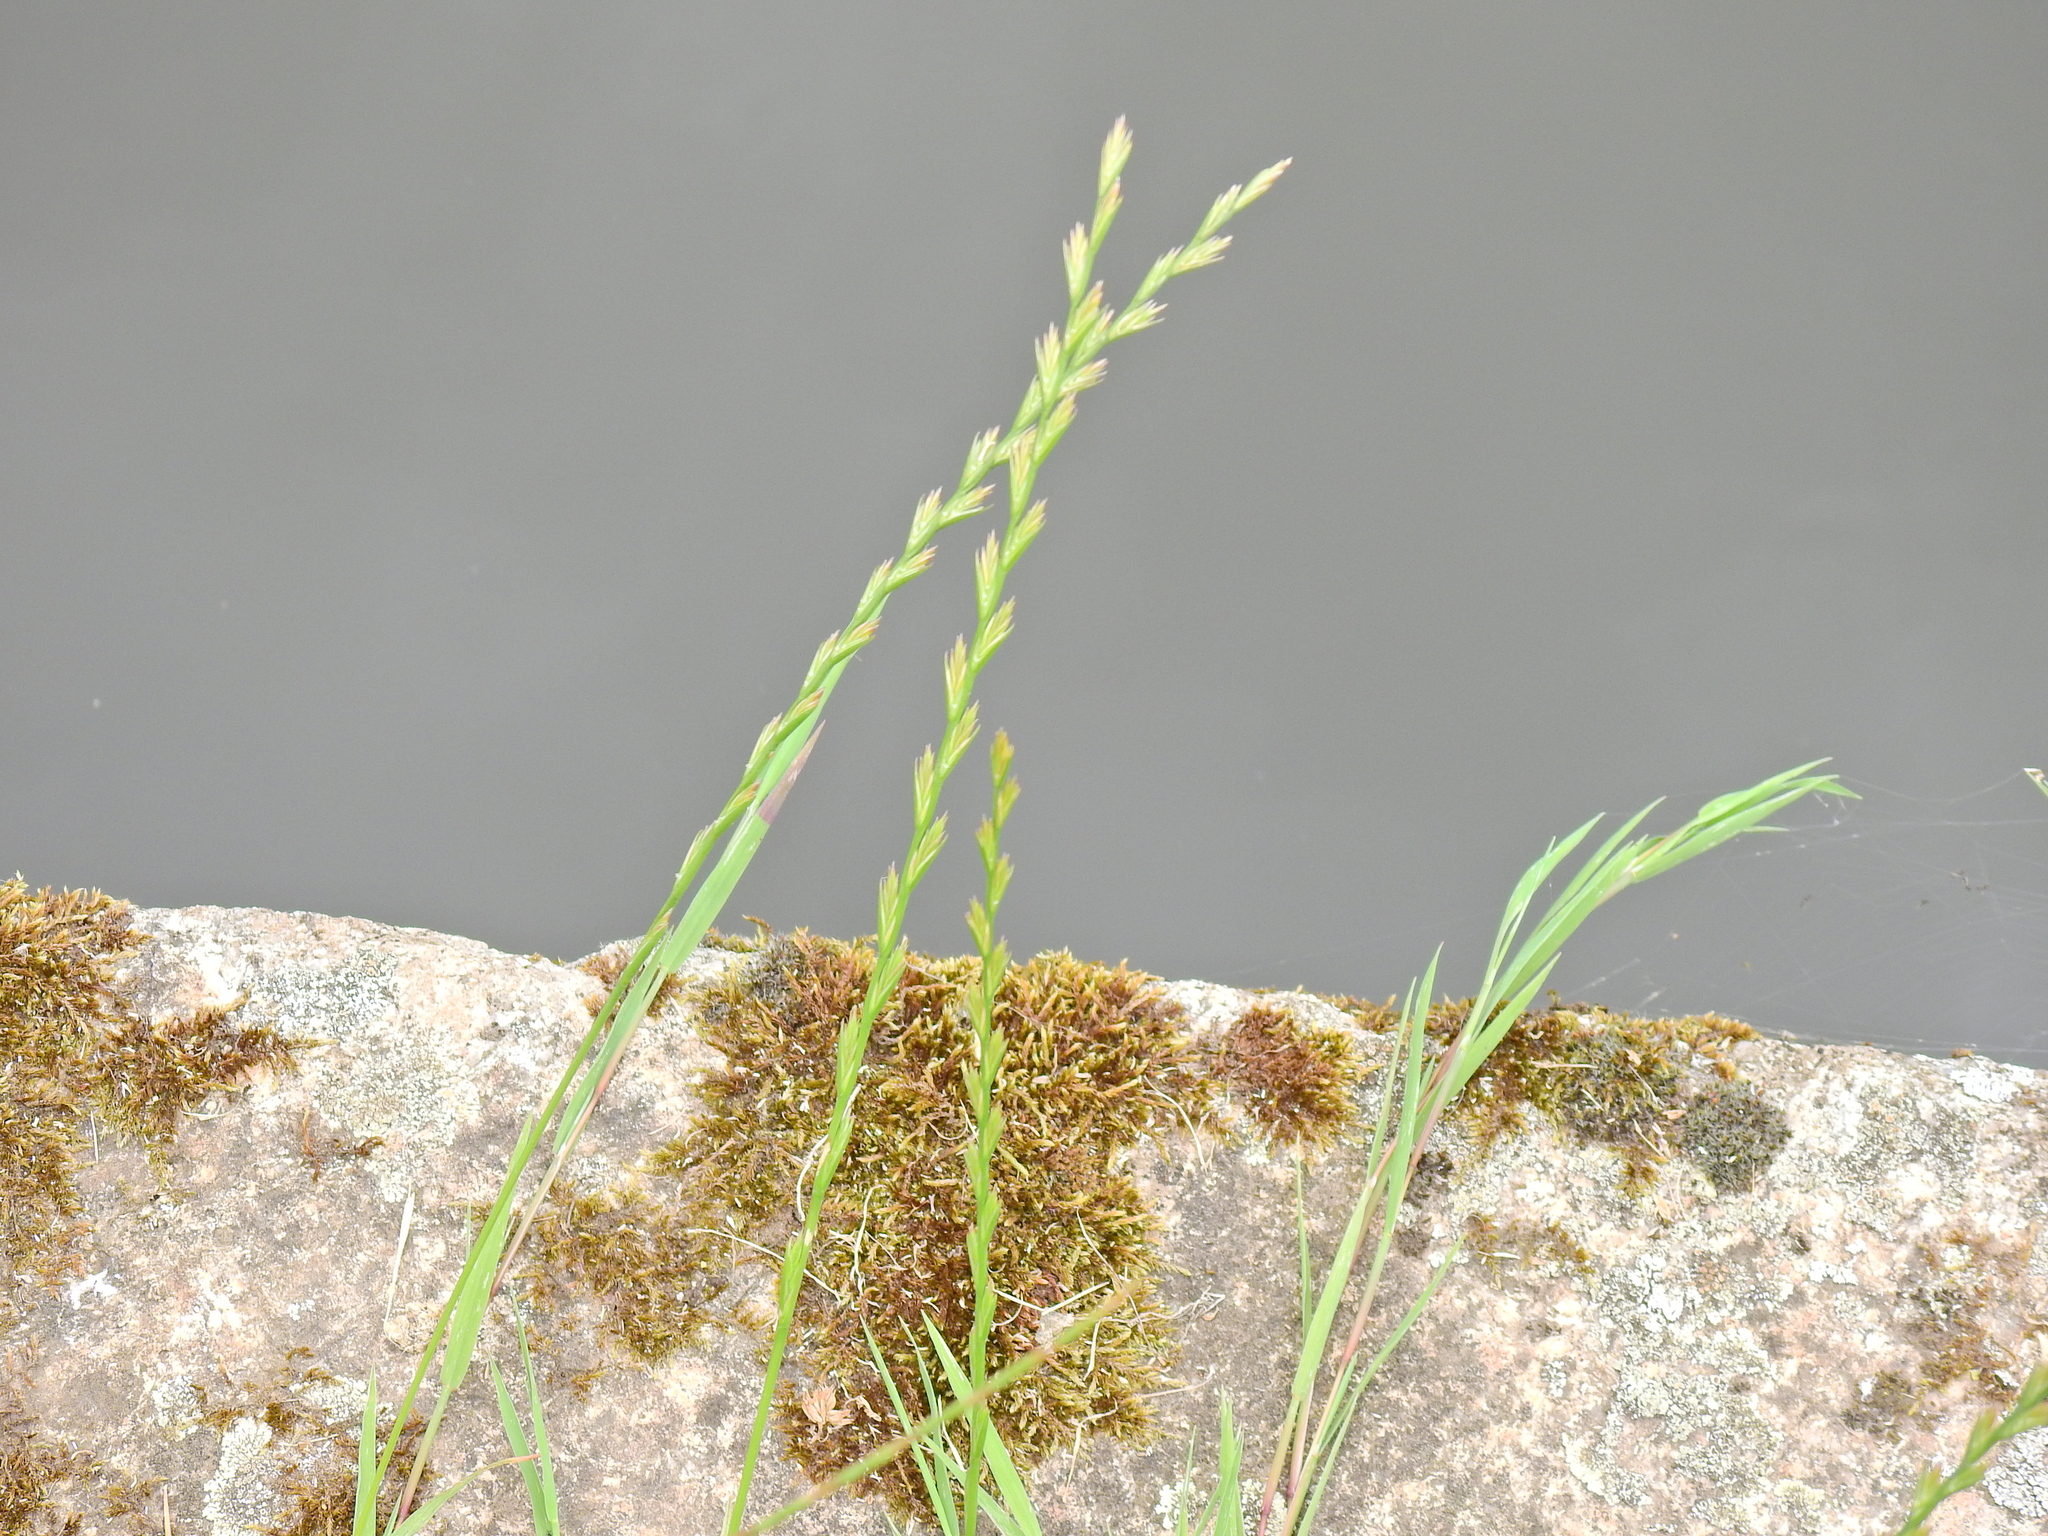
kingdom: Plantae
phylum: Tracheophyta
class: Liliopsida
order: Poales
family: Poaceae
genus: Lolium
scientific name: Lolium perenne
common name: Perennial ryegrass
